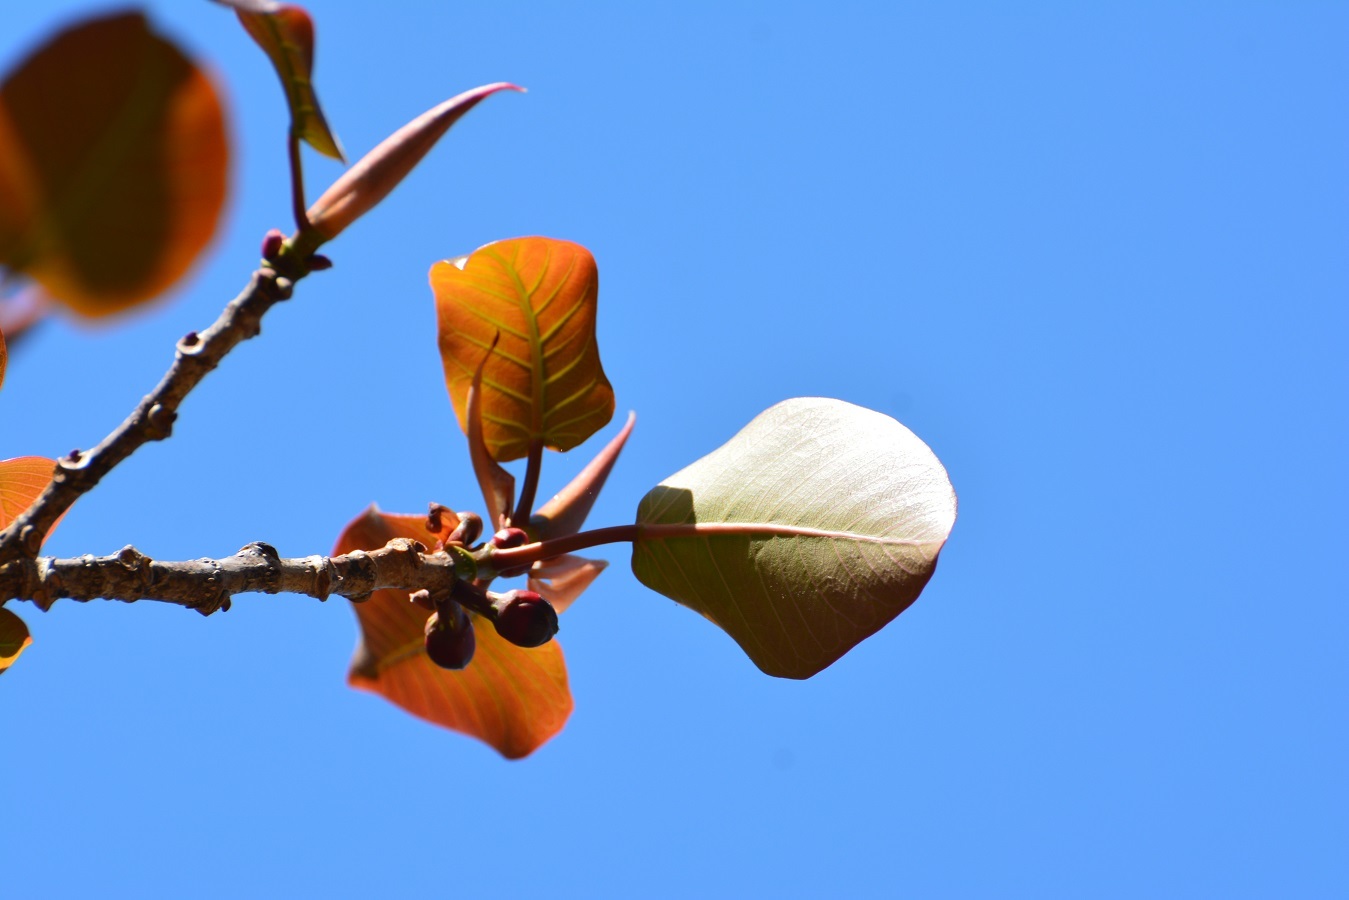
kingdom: Plantae
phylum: Tracheophyta
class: Magnoliopsida
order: Rosales
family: Moraceae
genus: Ficus
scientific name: Ficus aurea
